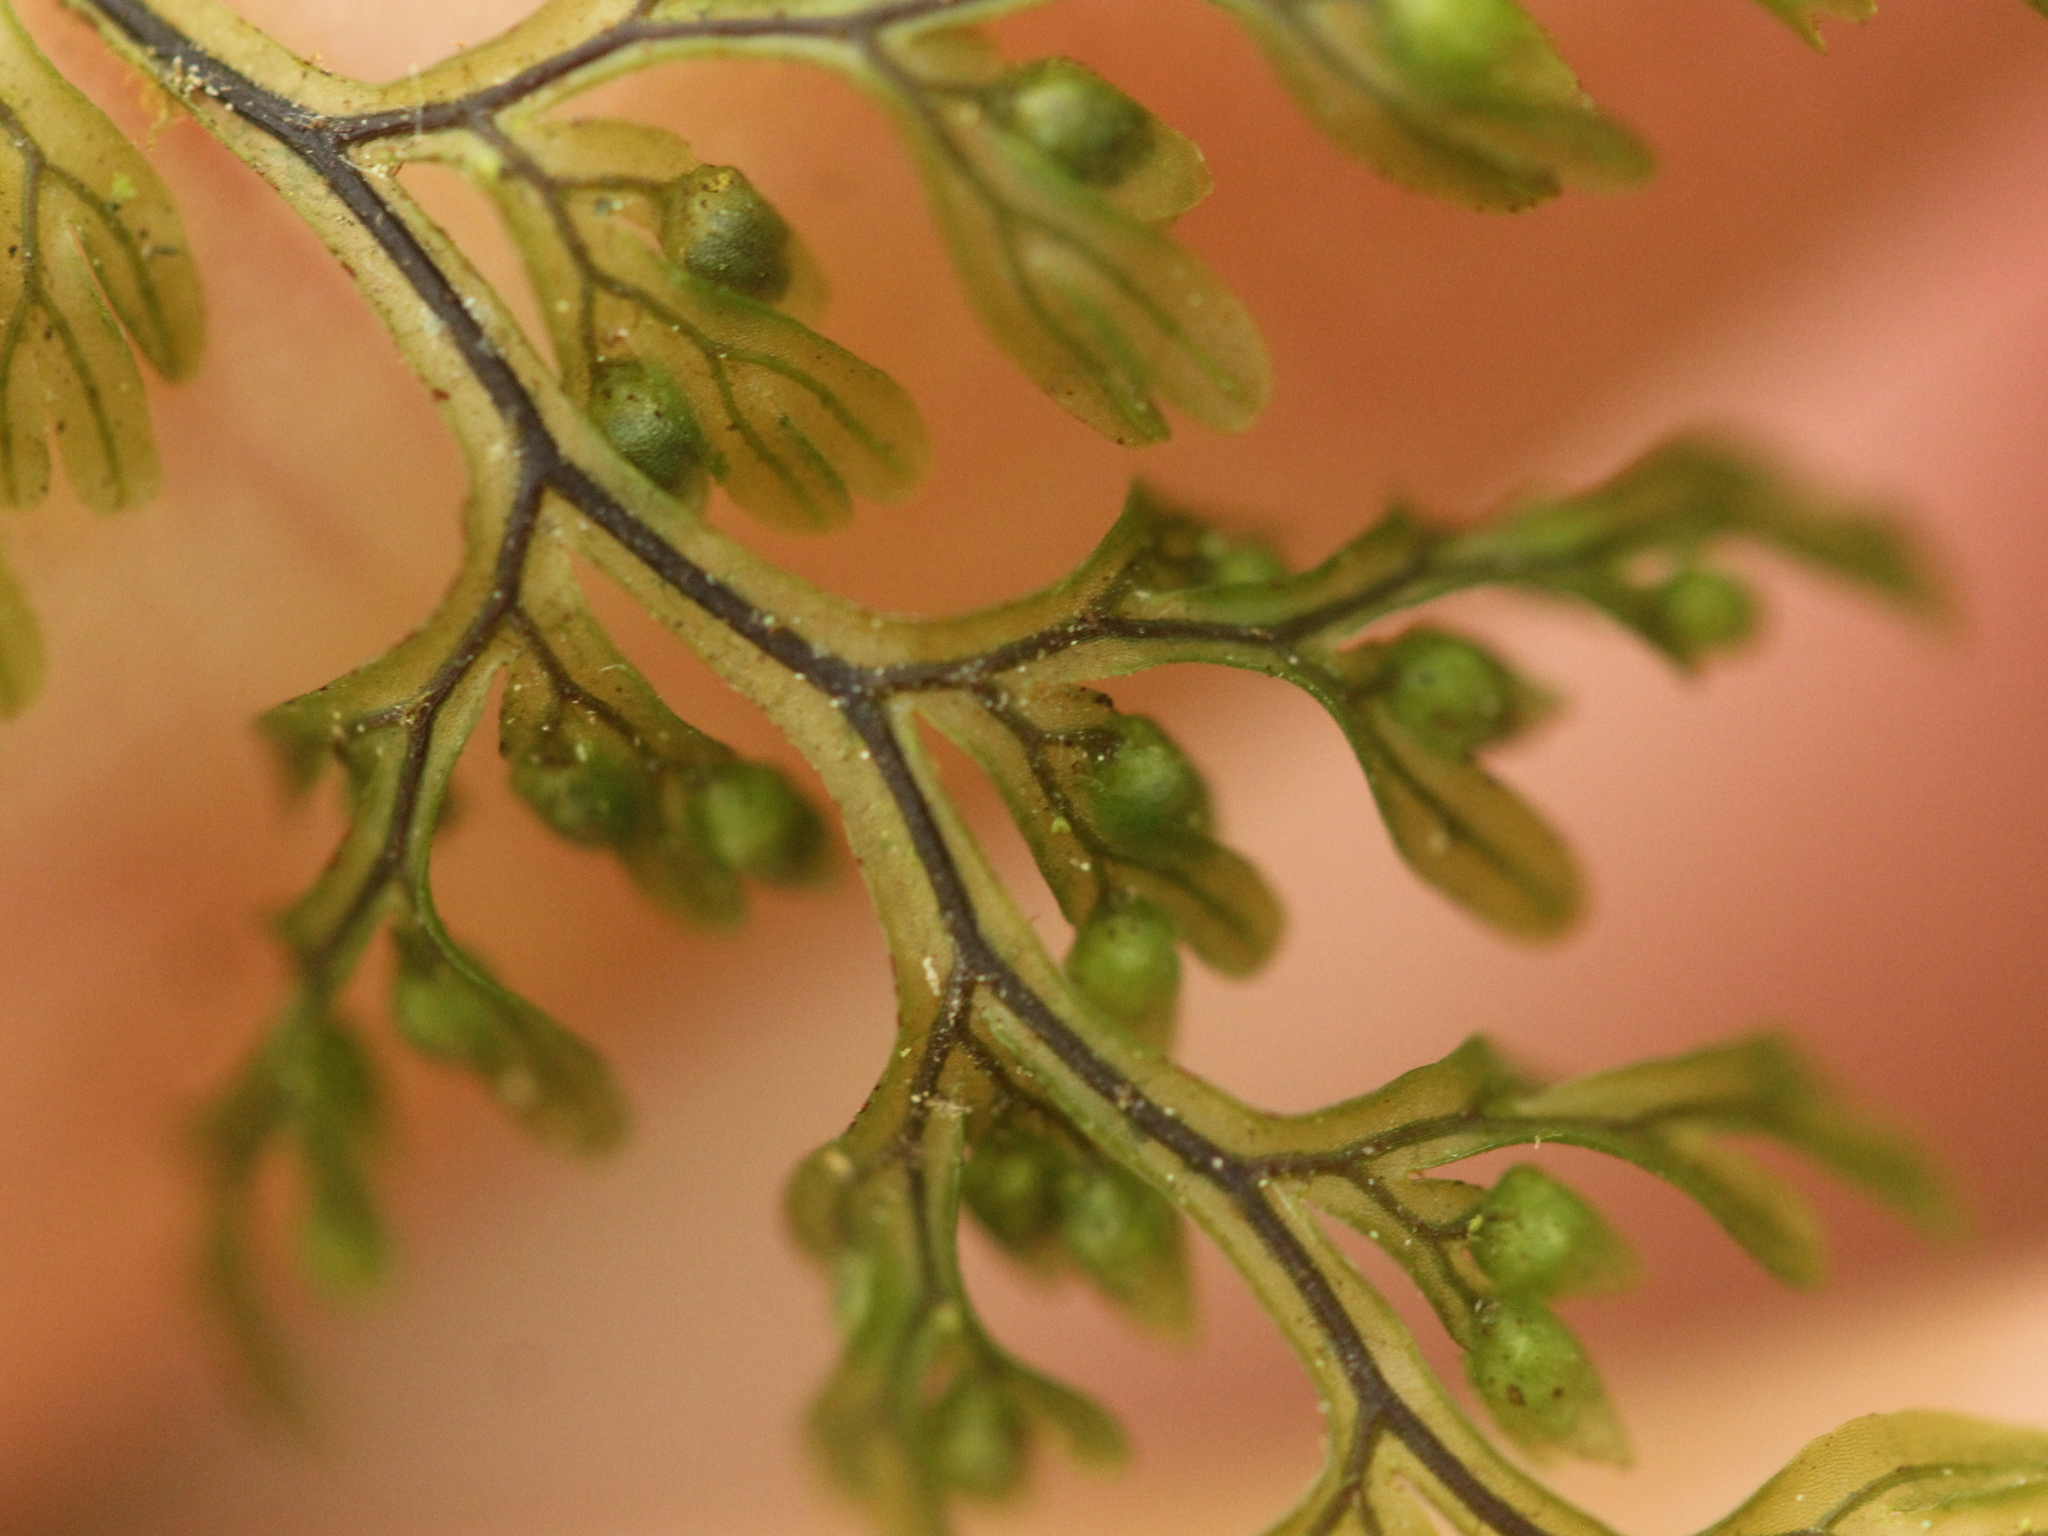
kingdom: Plantae
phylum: Tracheophyta
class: Polypodiopsida
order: Hymenophyllales
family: Hymenophyllaceae
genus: Hymenophyllum
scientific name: Hymenophyllum villosum
